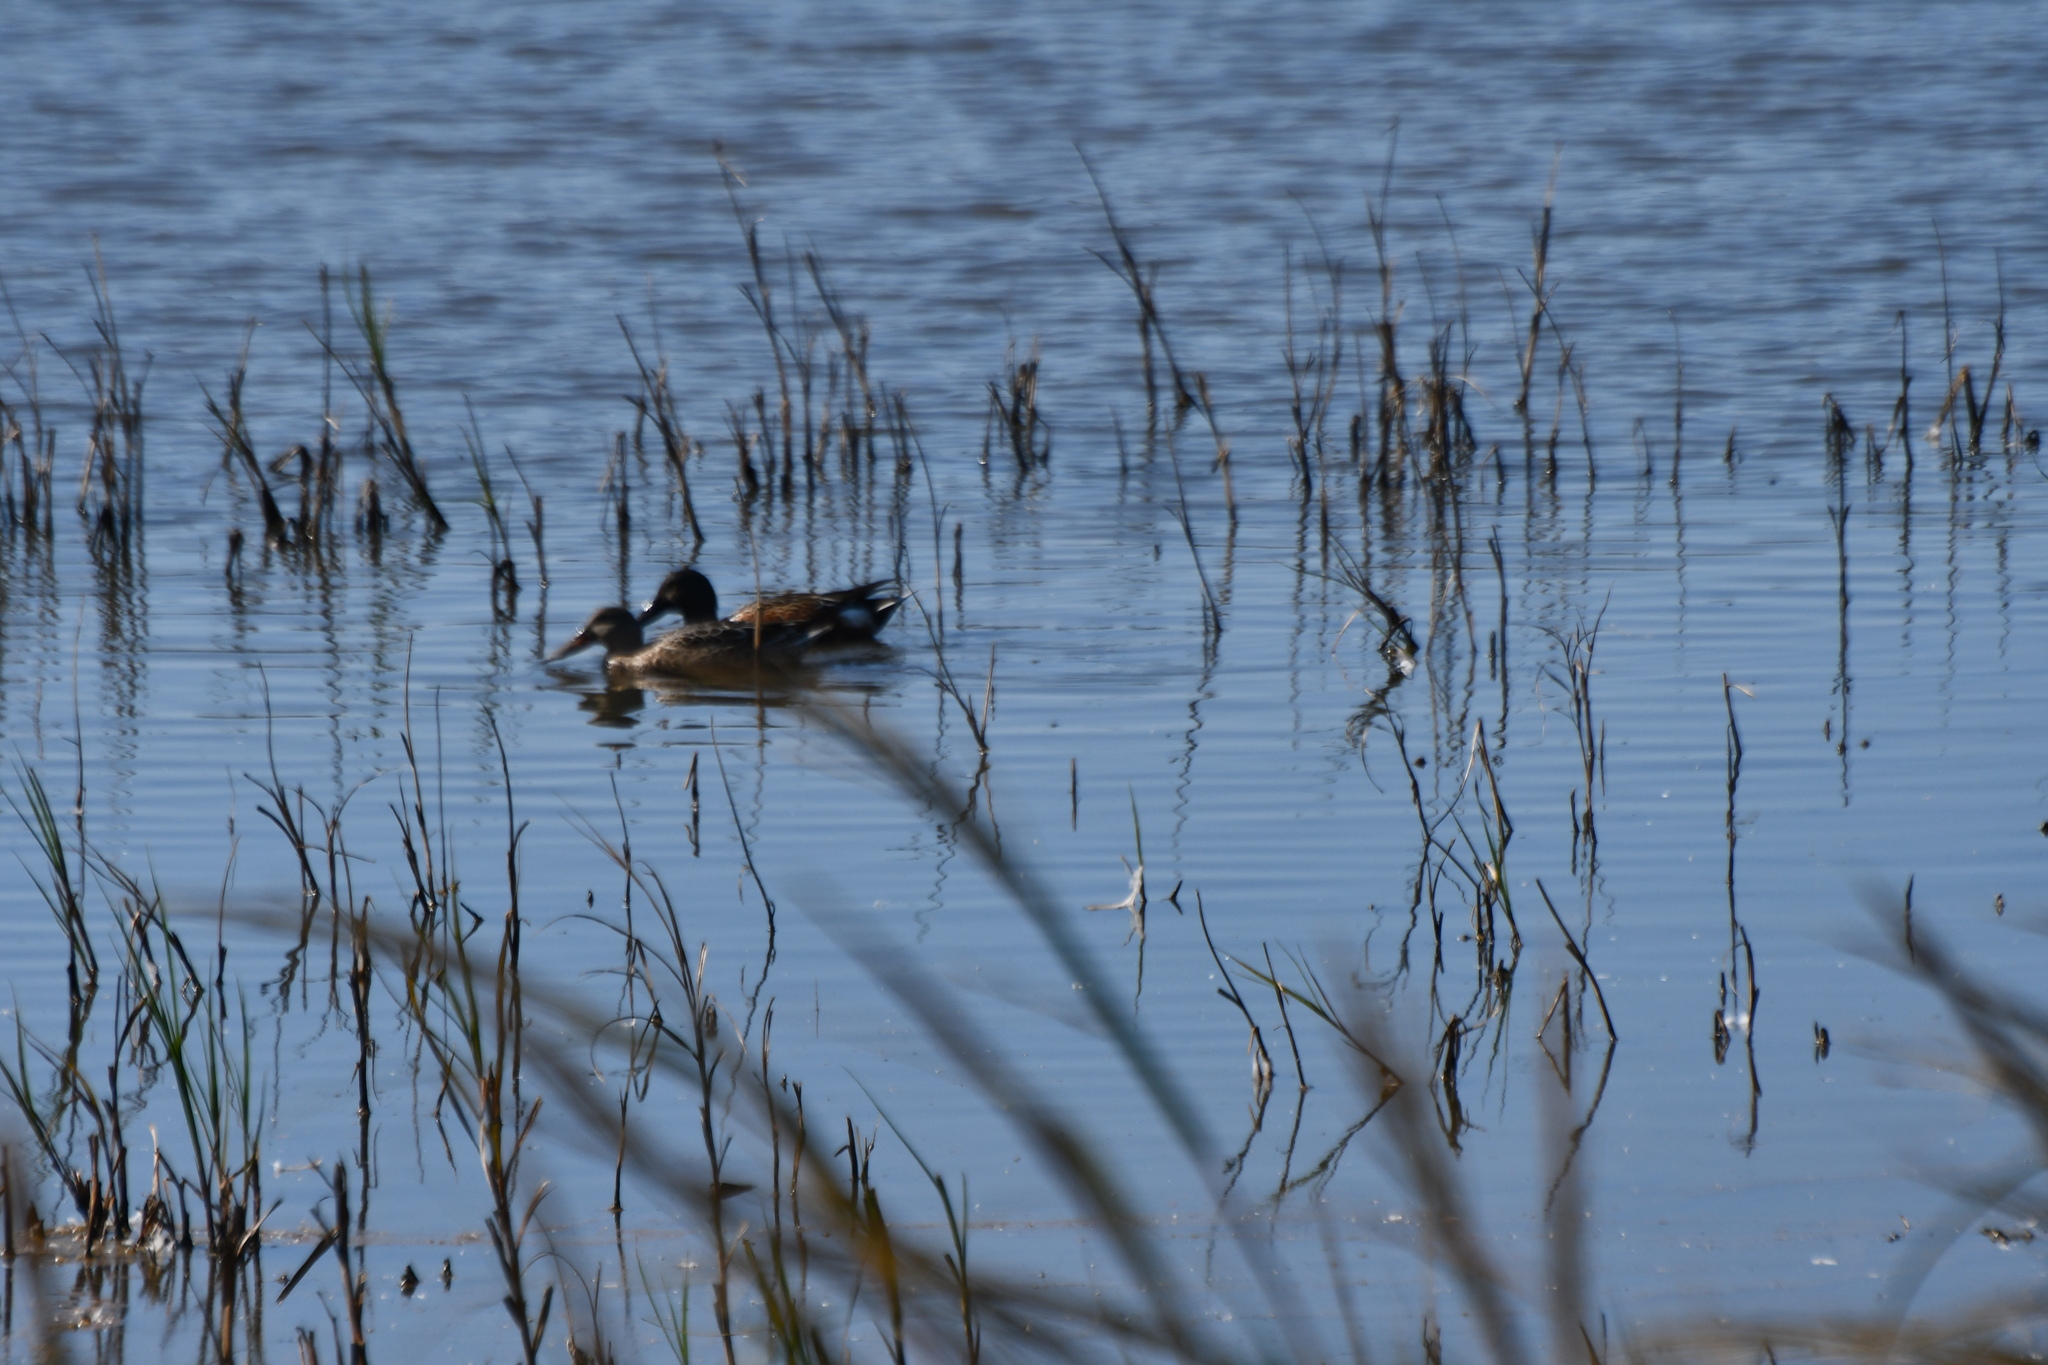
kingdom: Animalia
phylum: Chordata
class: Aves
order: Anseriformes
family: Anatidae
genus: Spatula
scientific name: Spatula clypeata
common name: Northern shoveler
